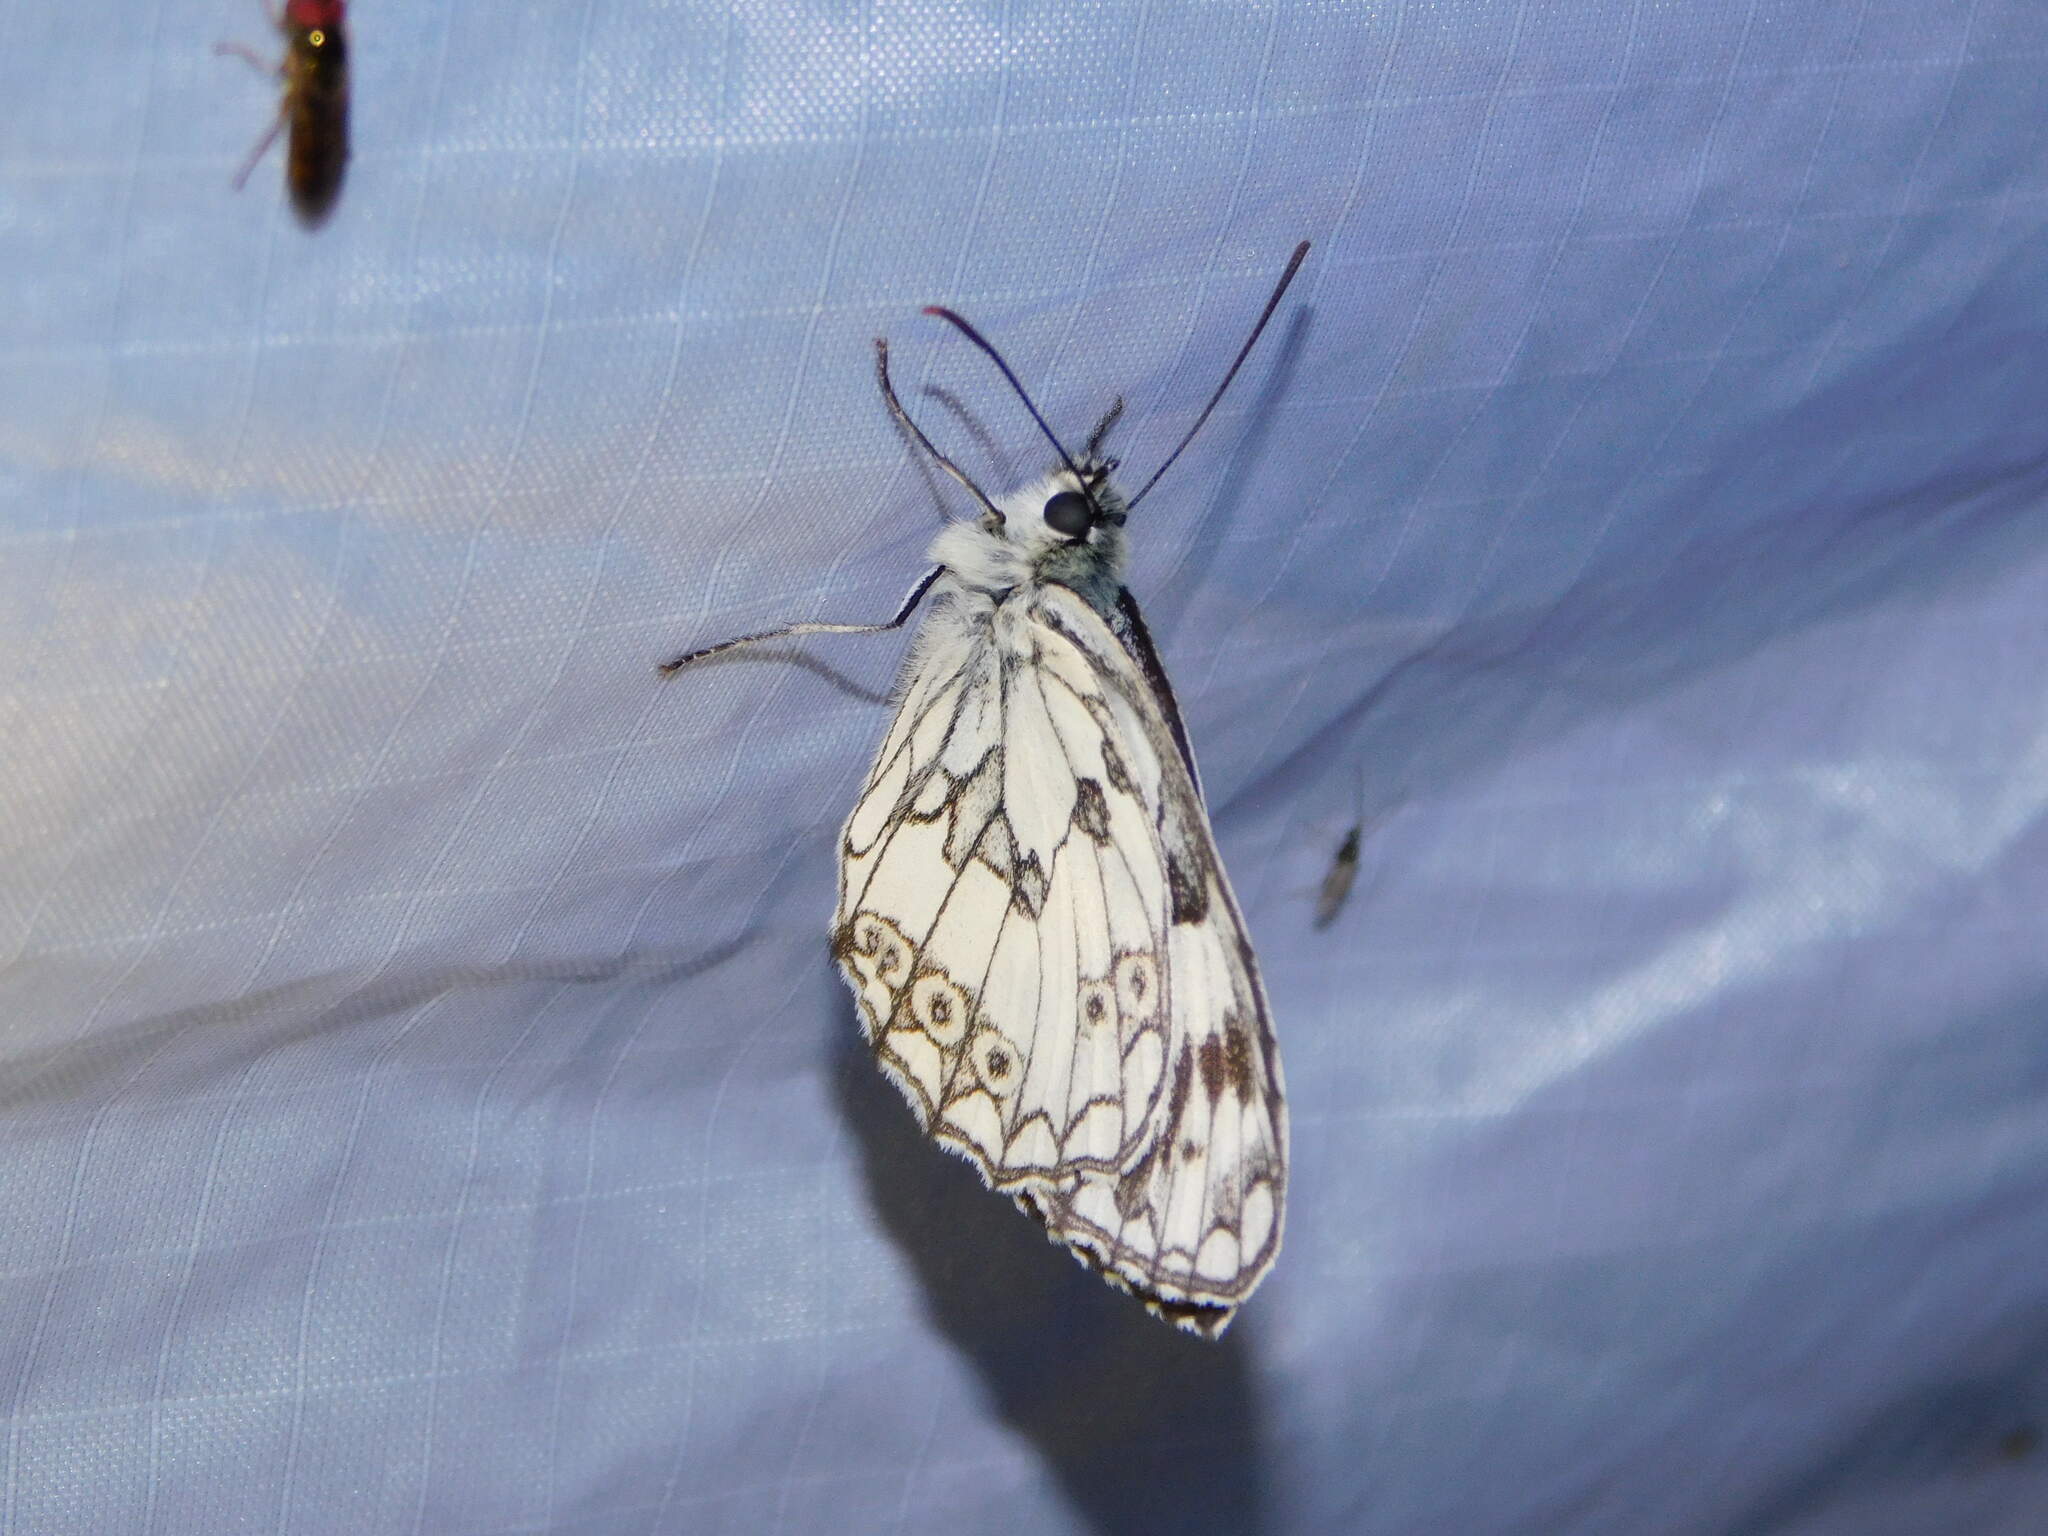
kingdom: Animalia
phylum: Arthropoda
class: Insecta
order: Lepidoptera
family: Nymphalidae
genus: Melanargia
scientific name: Melanargia galathea
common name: Marbled white
